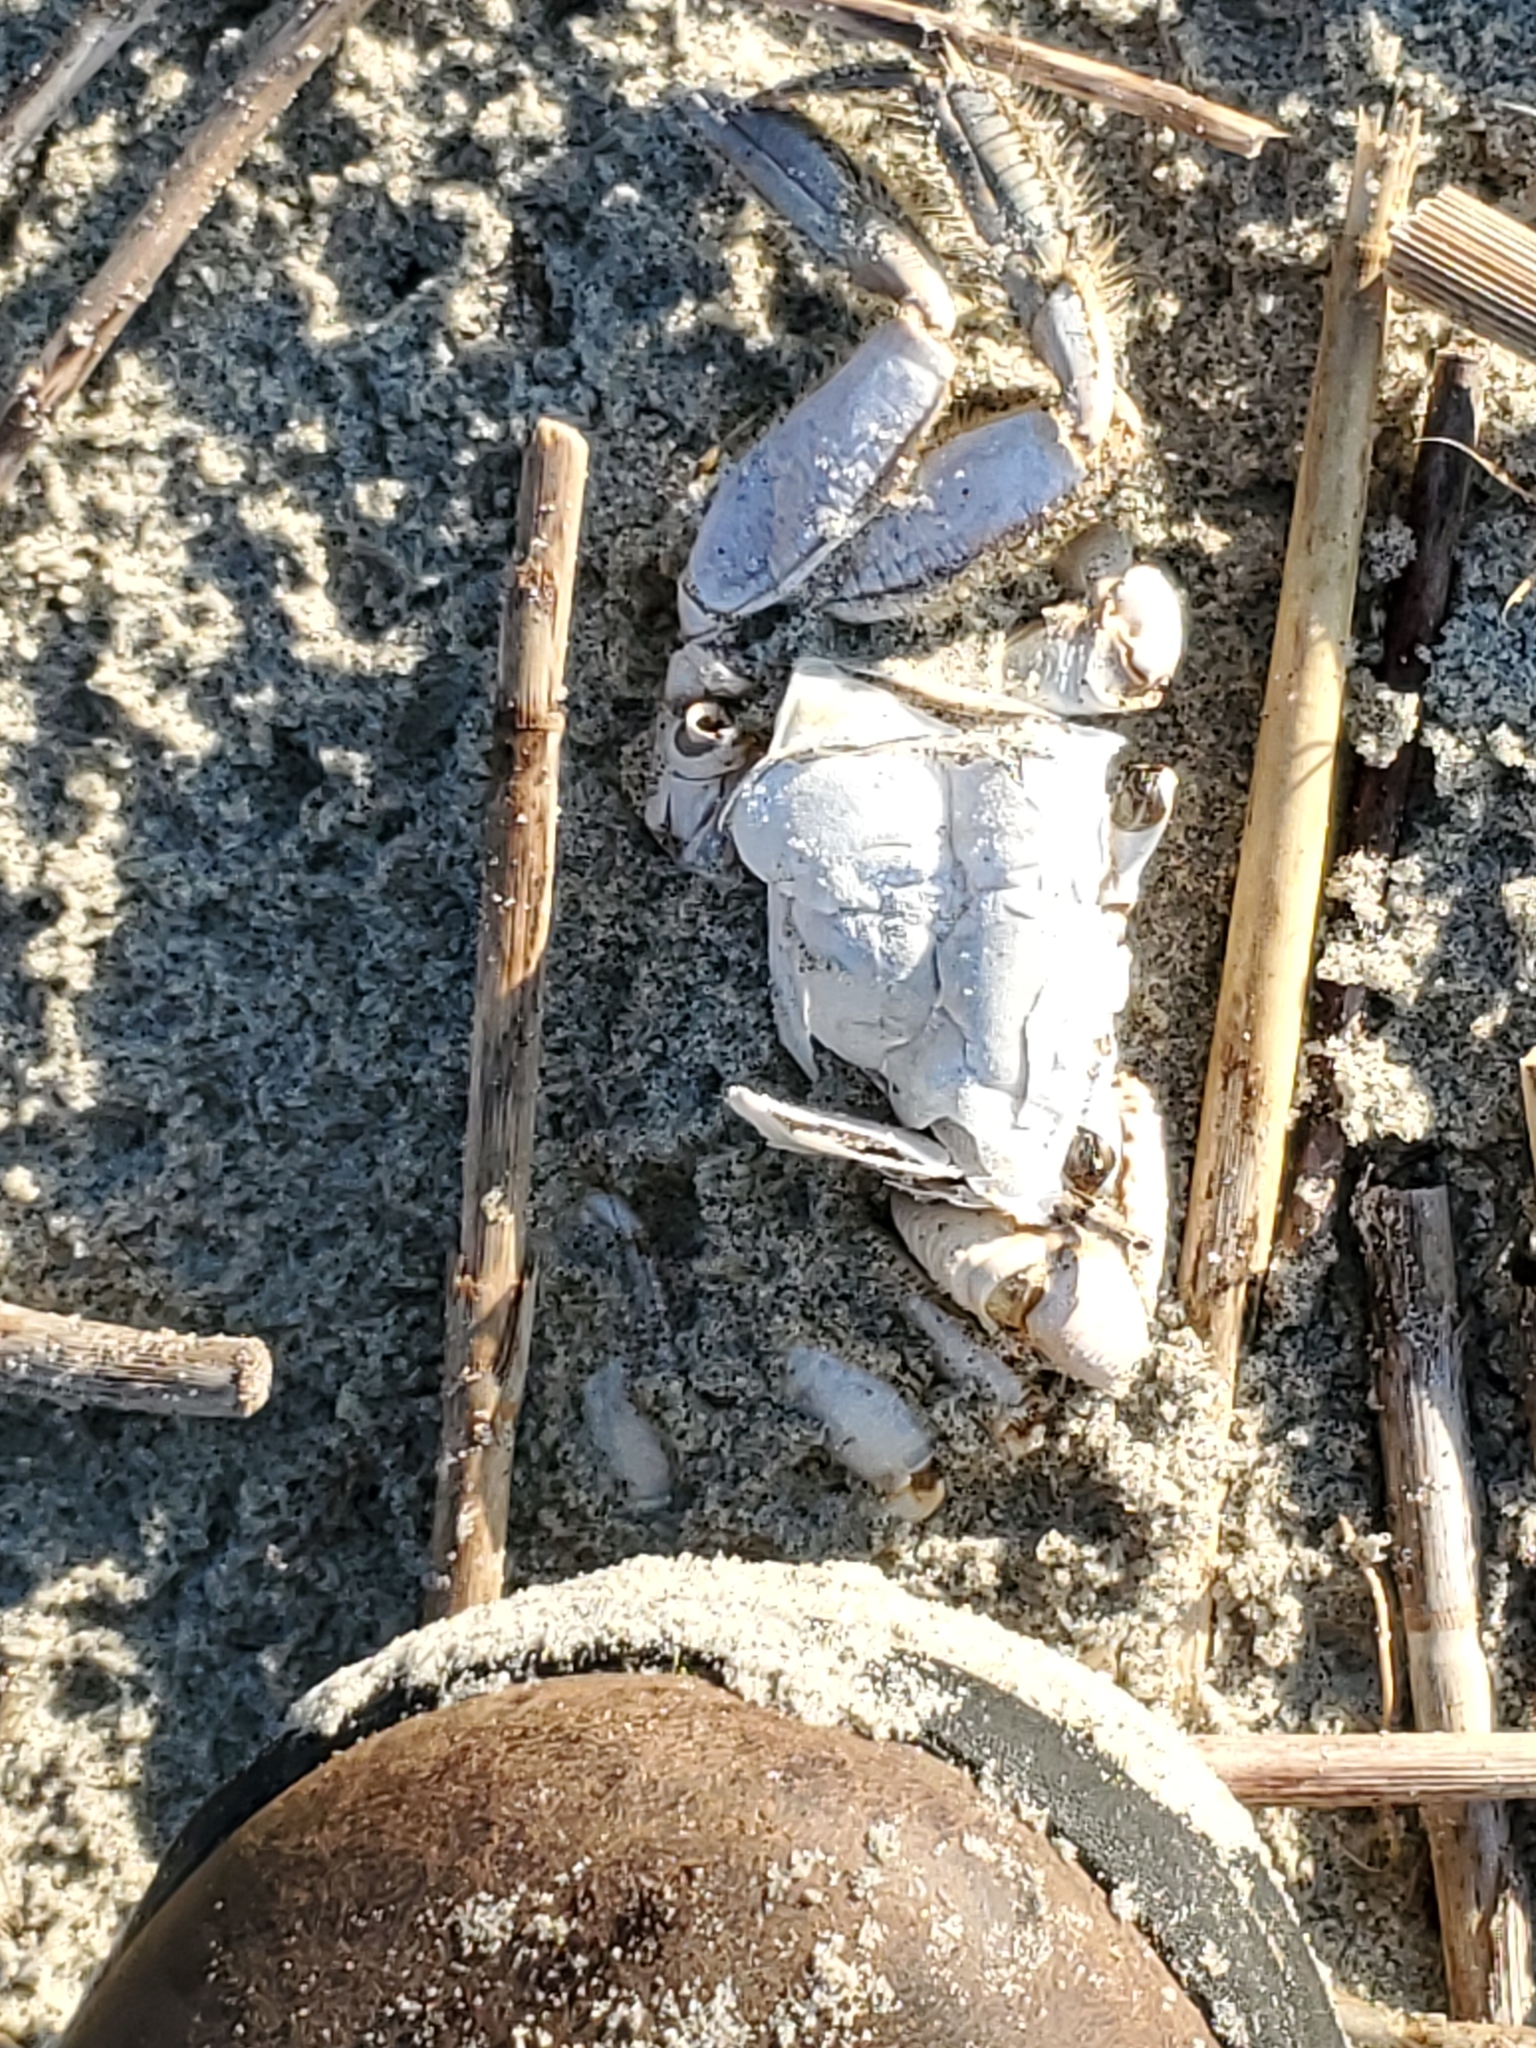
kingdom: Animalia
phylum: Arthropoda
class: Malacostraca
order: Decapoda
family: Ocypodidae
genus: Ocypode
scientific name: Ocypode quadrata
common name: Ghost crab
